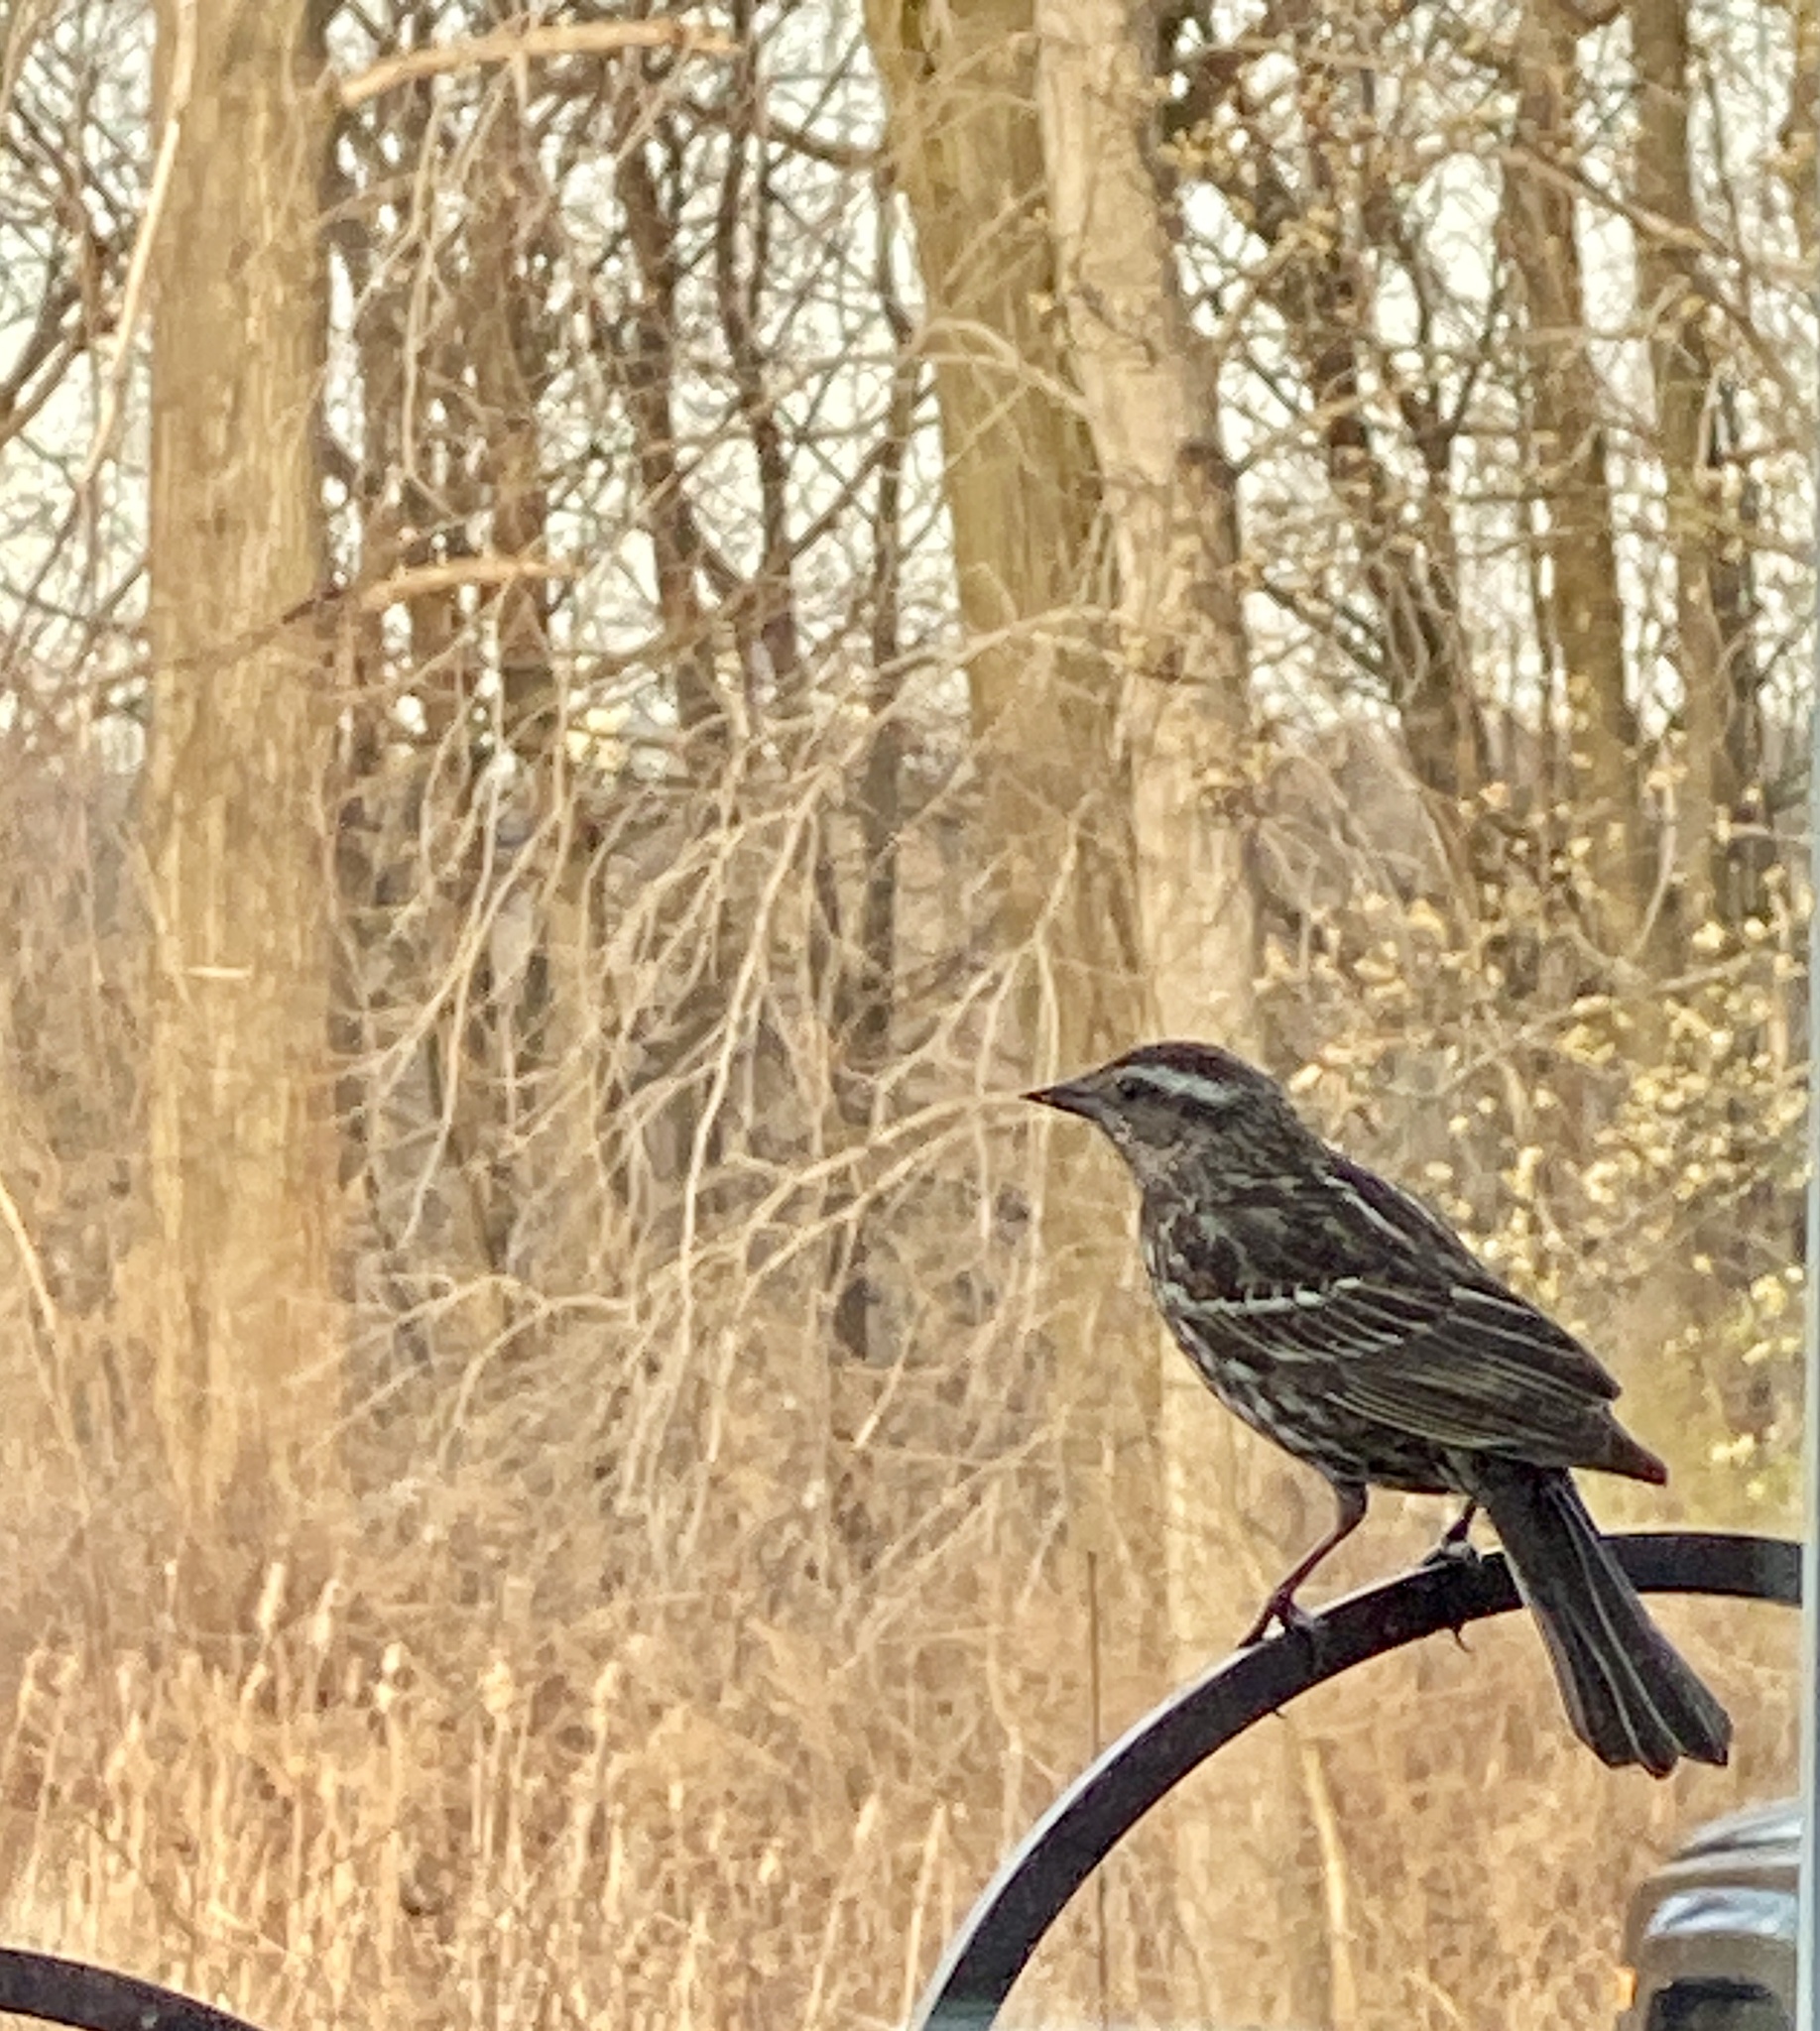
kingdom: Animalia
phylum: Chordata
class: Aves
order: Passeriformes
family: Icteridae
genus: Agelaius
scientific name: Agelaius phoeniceus
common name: Red-winged blackbird
